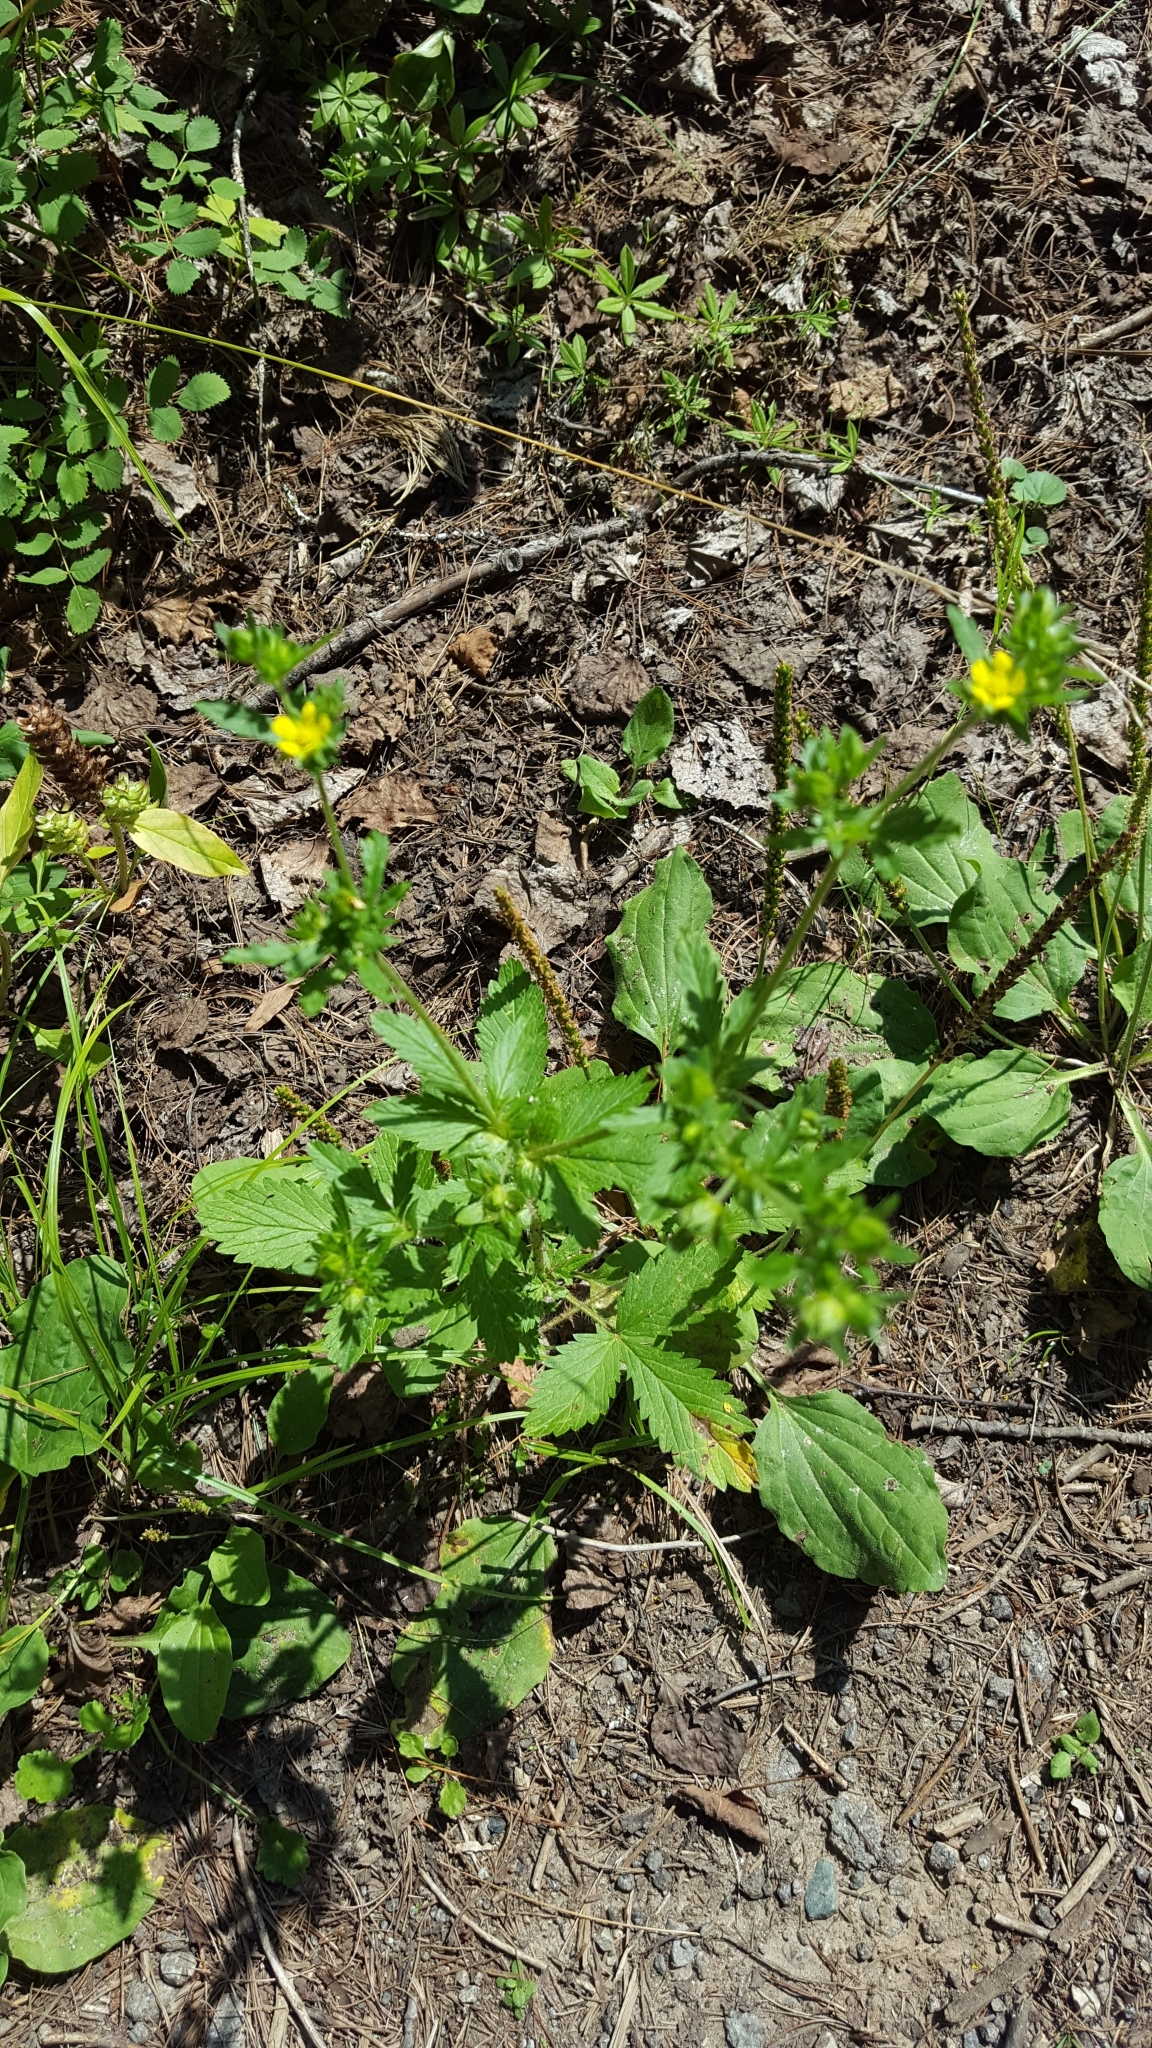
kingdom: Plantae
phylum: Tracheophyta
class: Magnoliopsida
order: Rosales
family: Rosaceae
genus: Potentilla
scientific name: Potentilla norvegica
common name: Ternate-leaved cinquefoil
